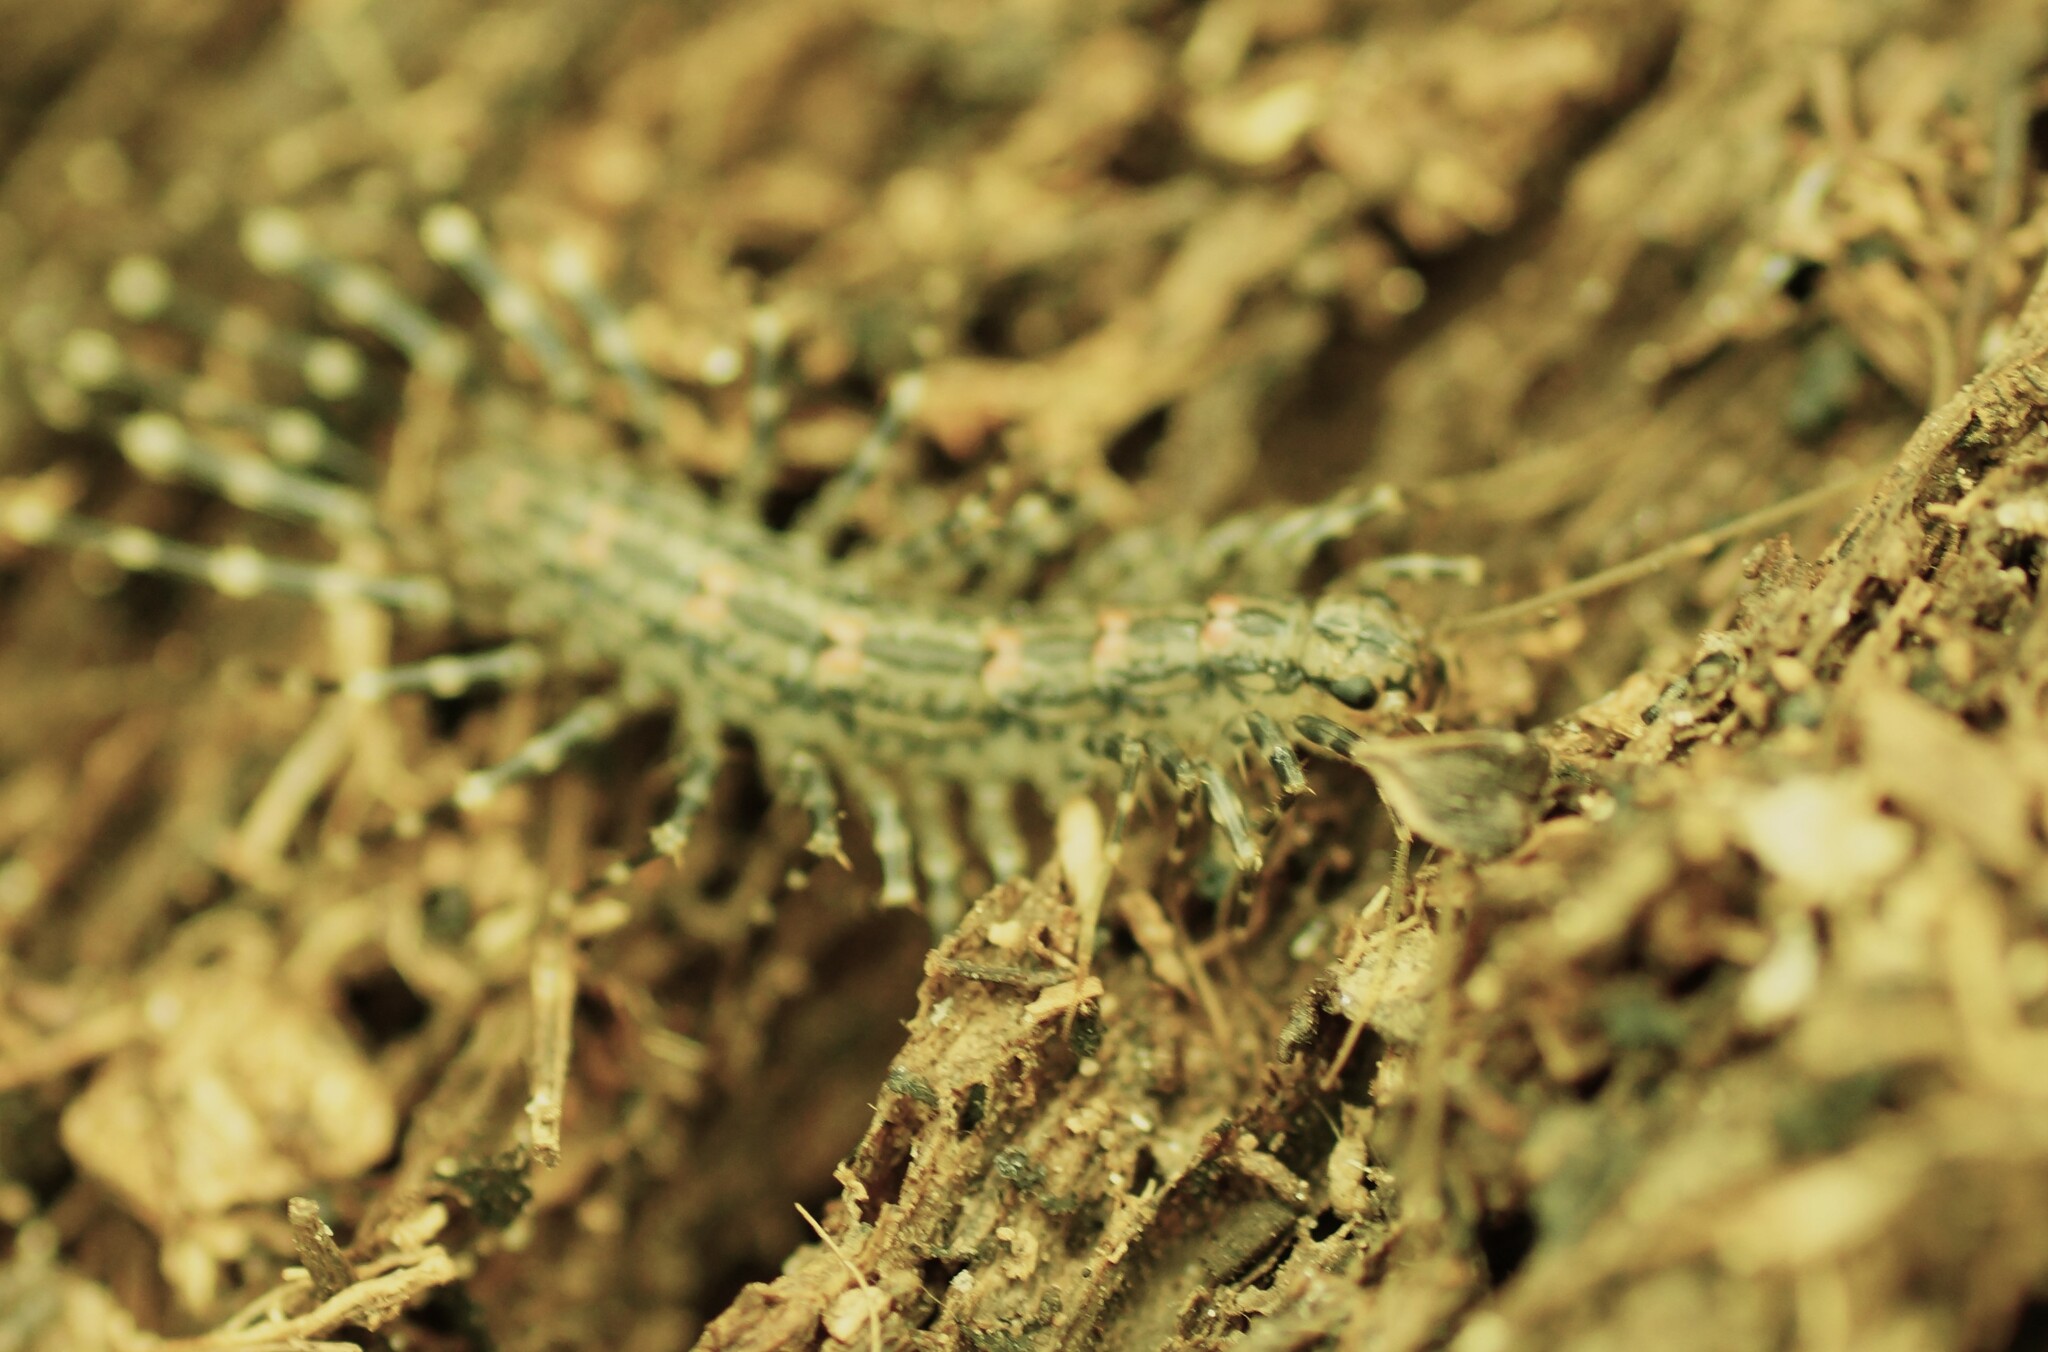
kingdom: Animalia
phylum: Arthropoda
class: Chilopoda
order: Scutigeromorpha
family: Scutigeridae
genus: Allothereua
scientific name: Allothereua maculata
